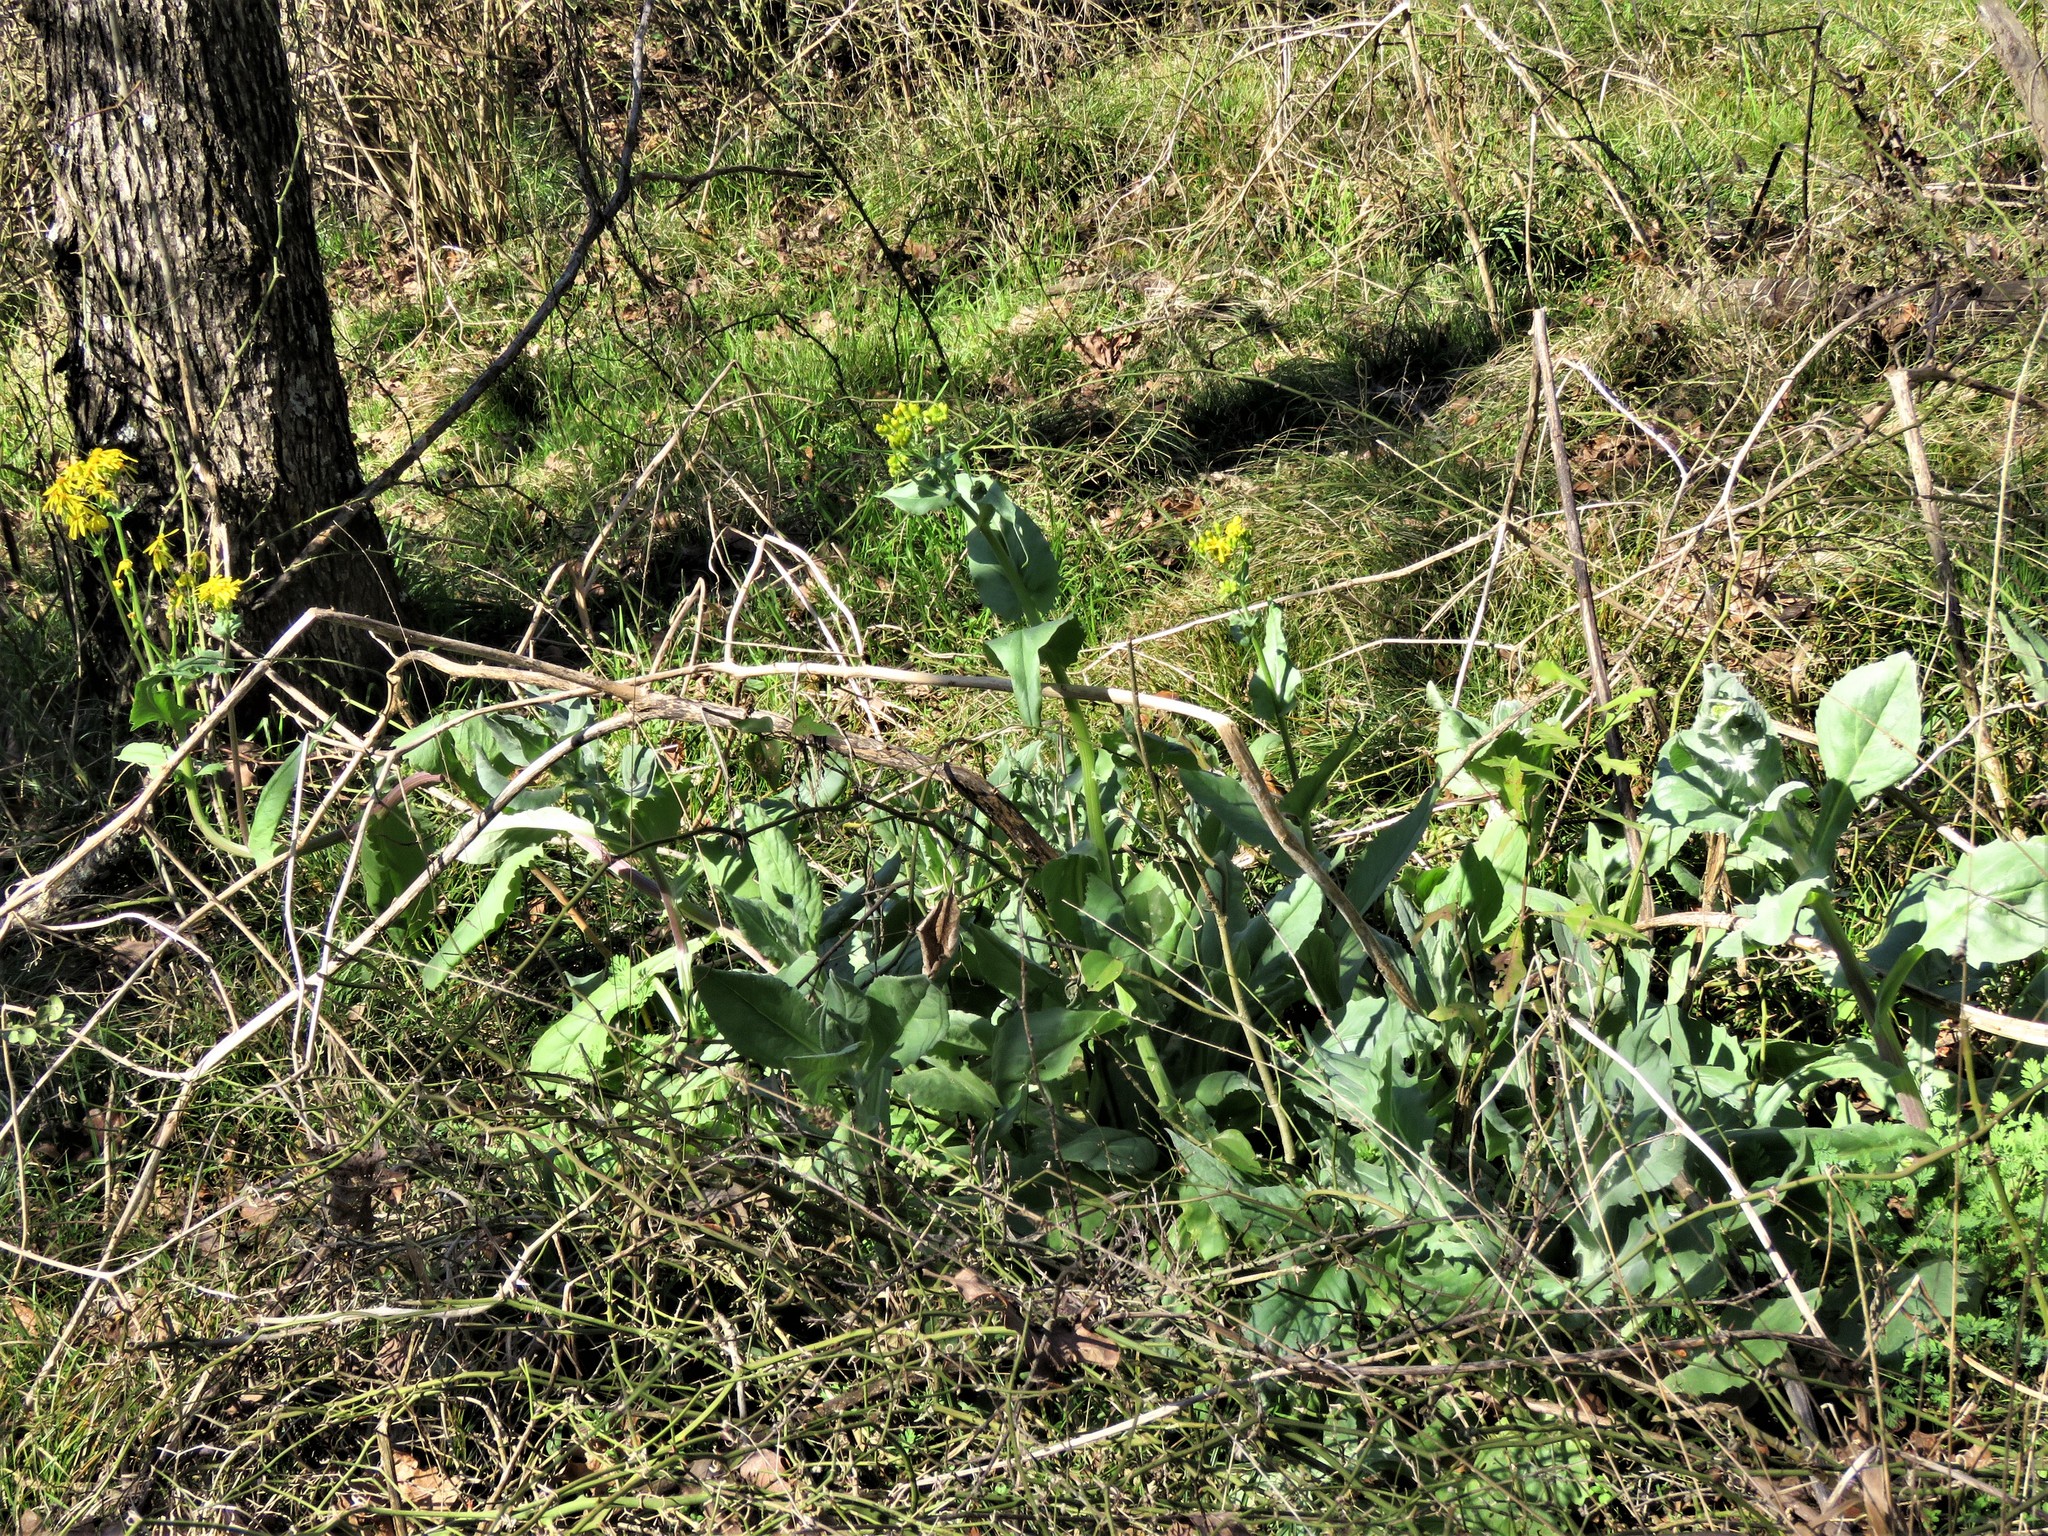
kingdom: Plantae
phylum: Tracheophyta
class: Magnoliopsida
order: Asterales
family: Asteraceae
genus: Senecio
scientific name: Senecio ampullaceus
